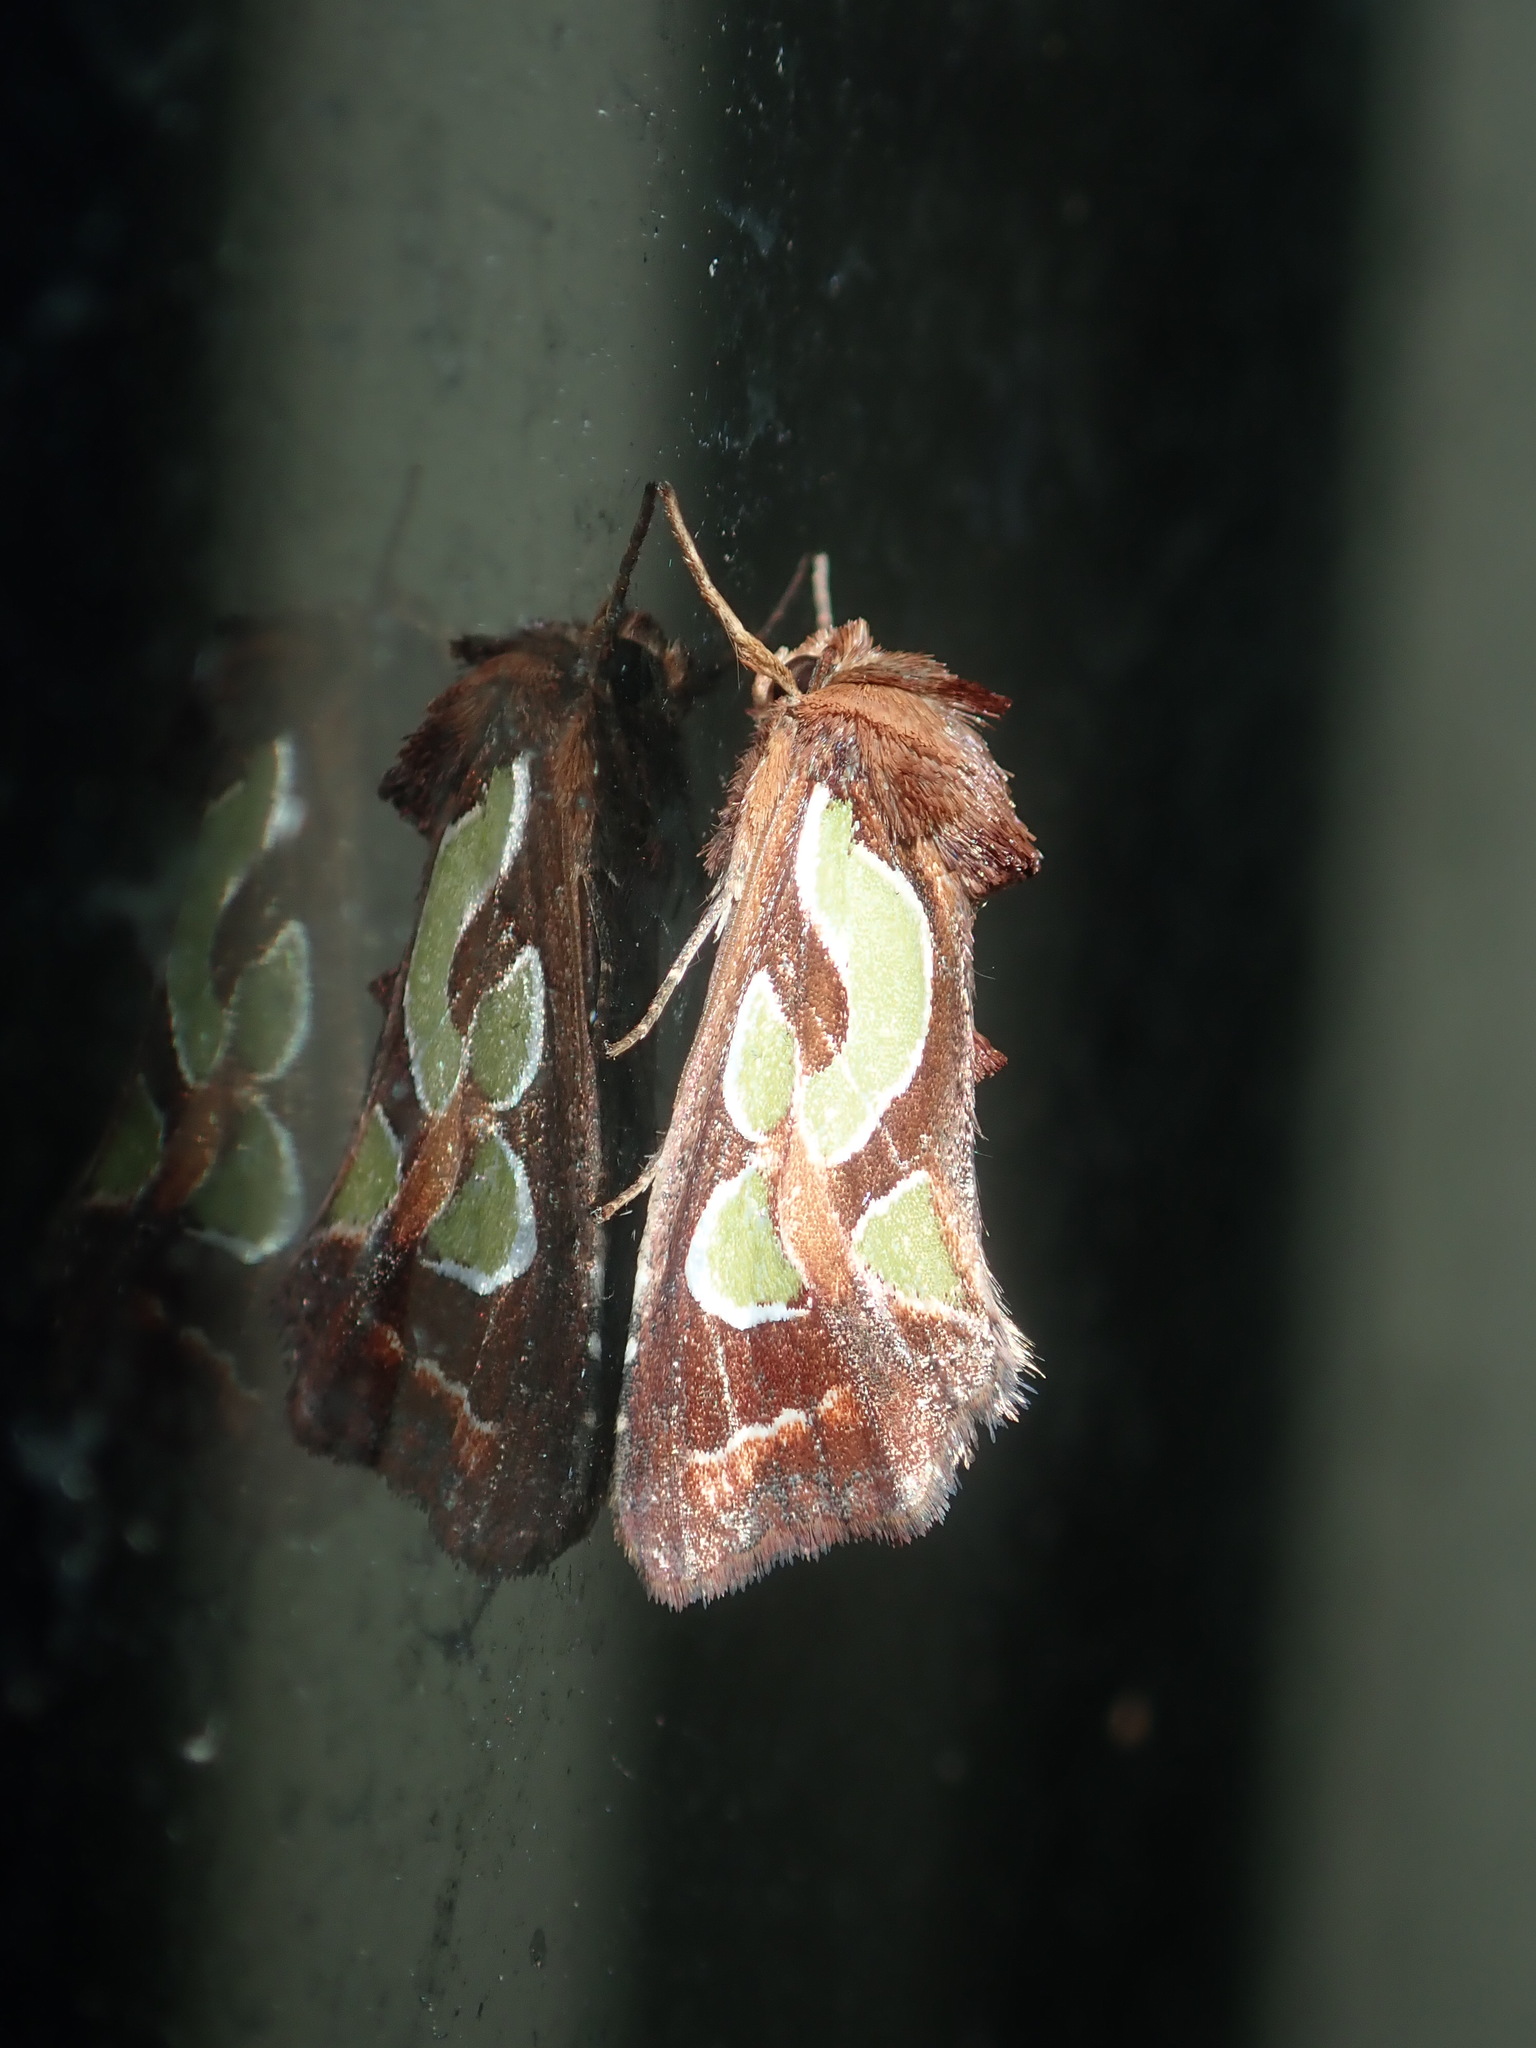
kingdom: Animalia
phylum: Arthropoda
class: Insecta
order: Lepidoptera
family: Noctuidae
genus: Cosmodes
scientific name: Cosmodes elegans
